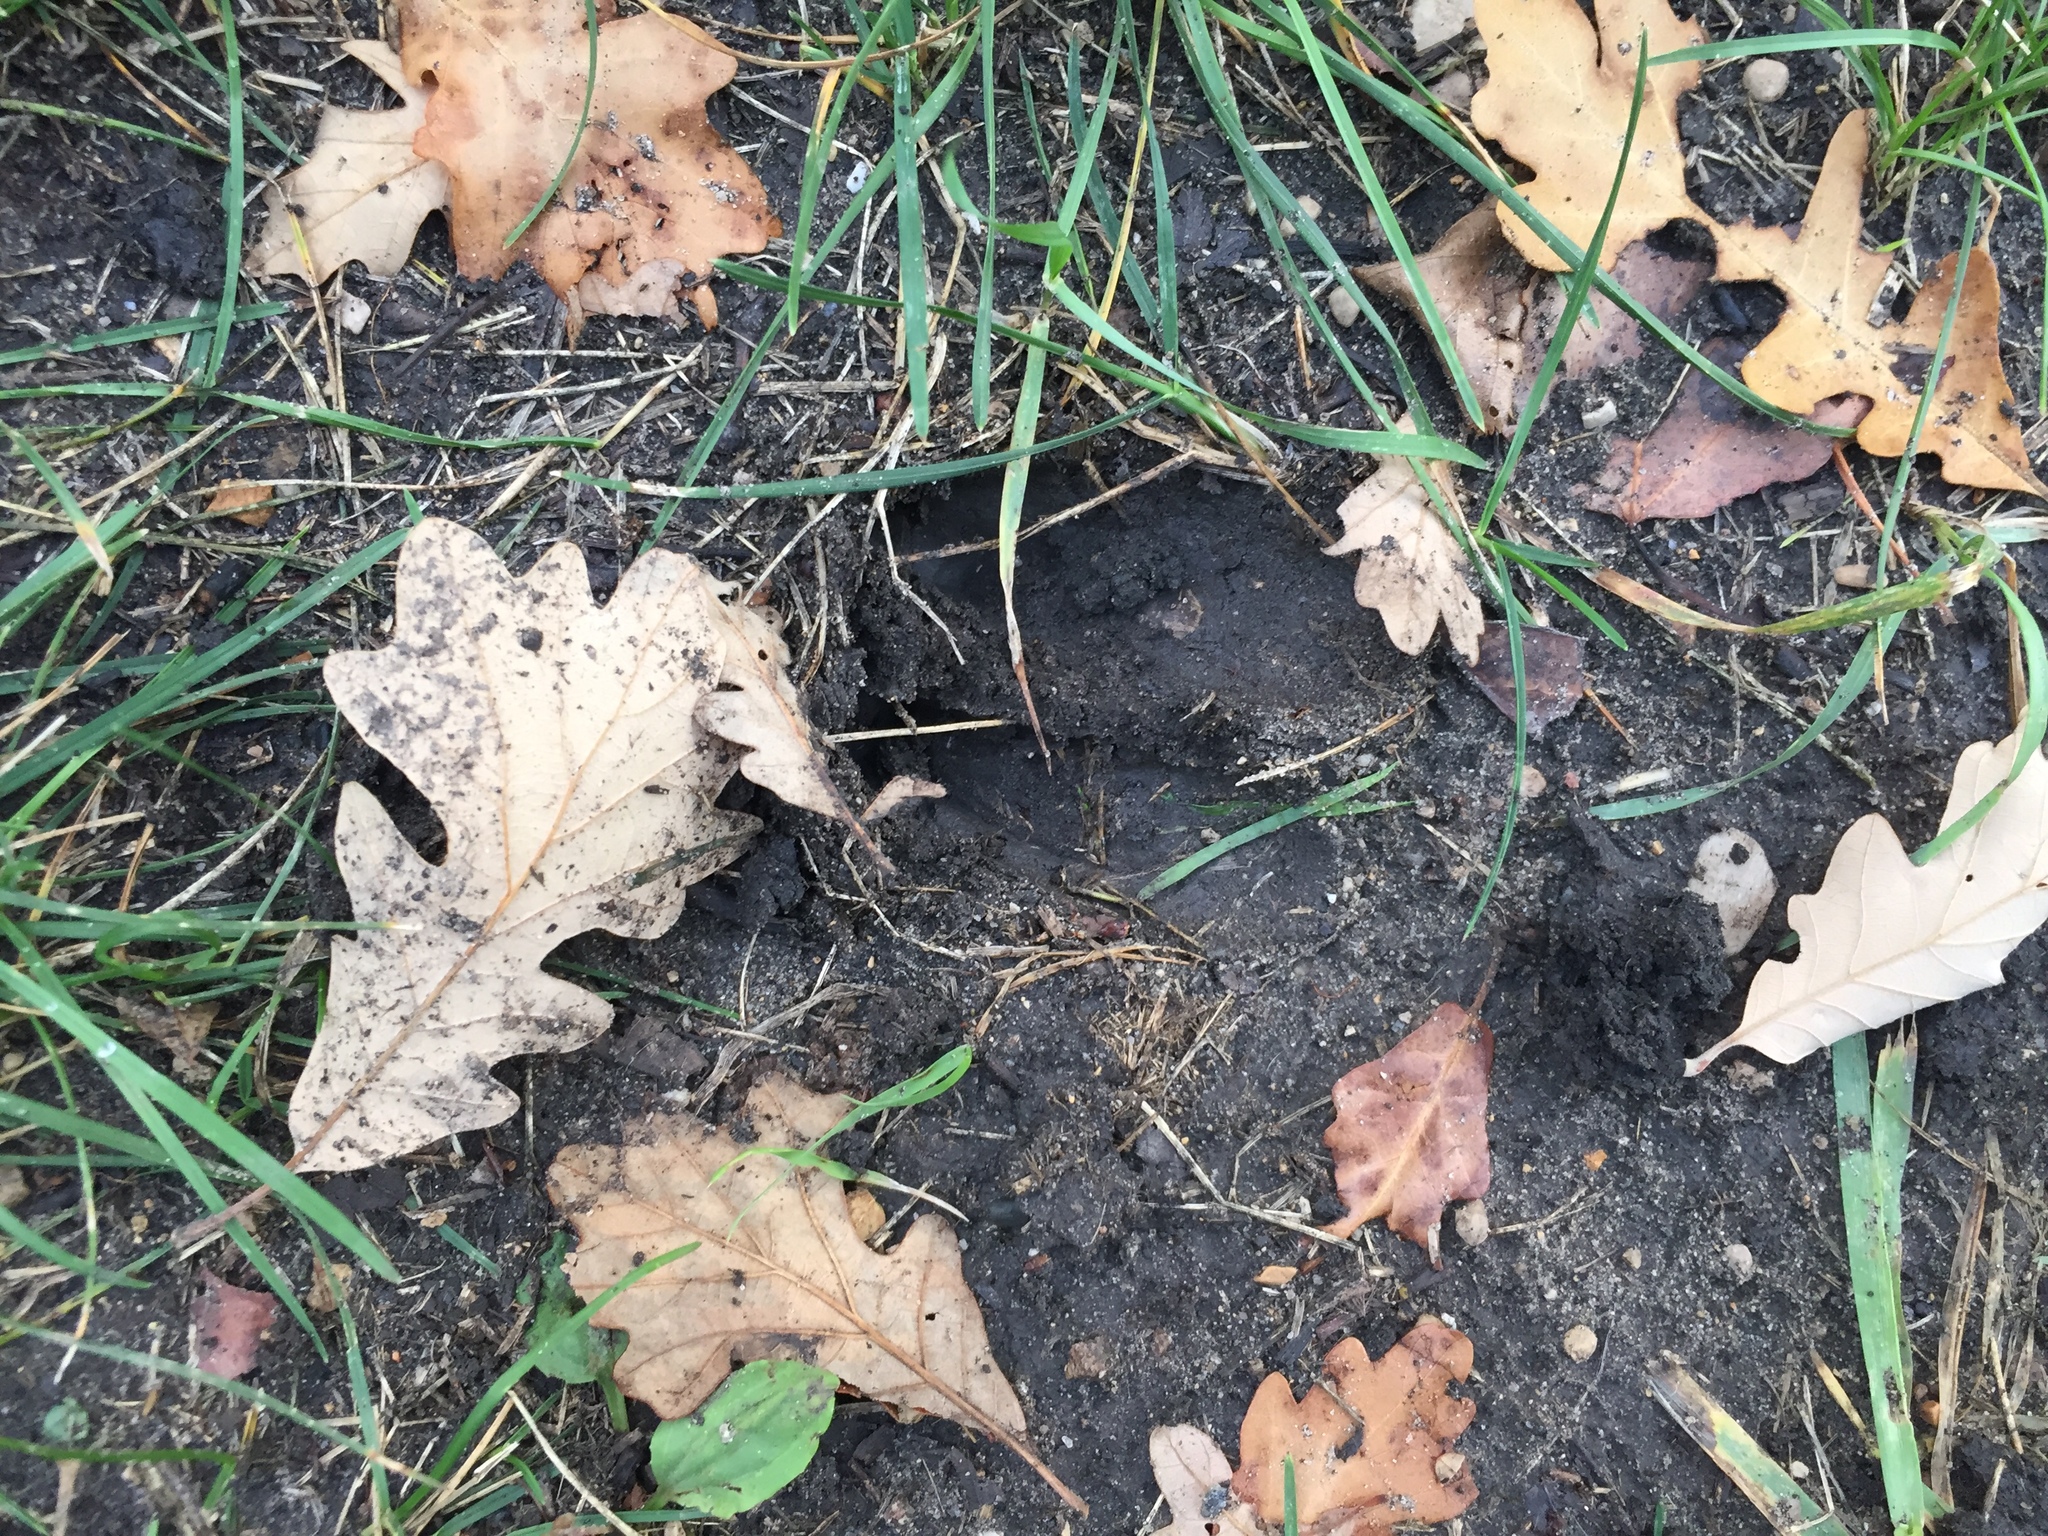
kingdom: Animalia
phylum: Chordata
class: Mammalia
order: Artiodactyla
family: Cervidae
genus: Odocoileus
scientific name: Odocoileus virginianus
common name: White-tailed deer
